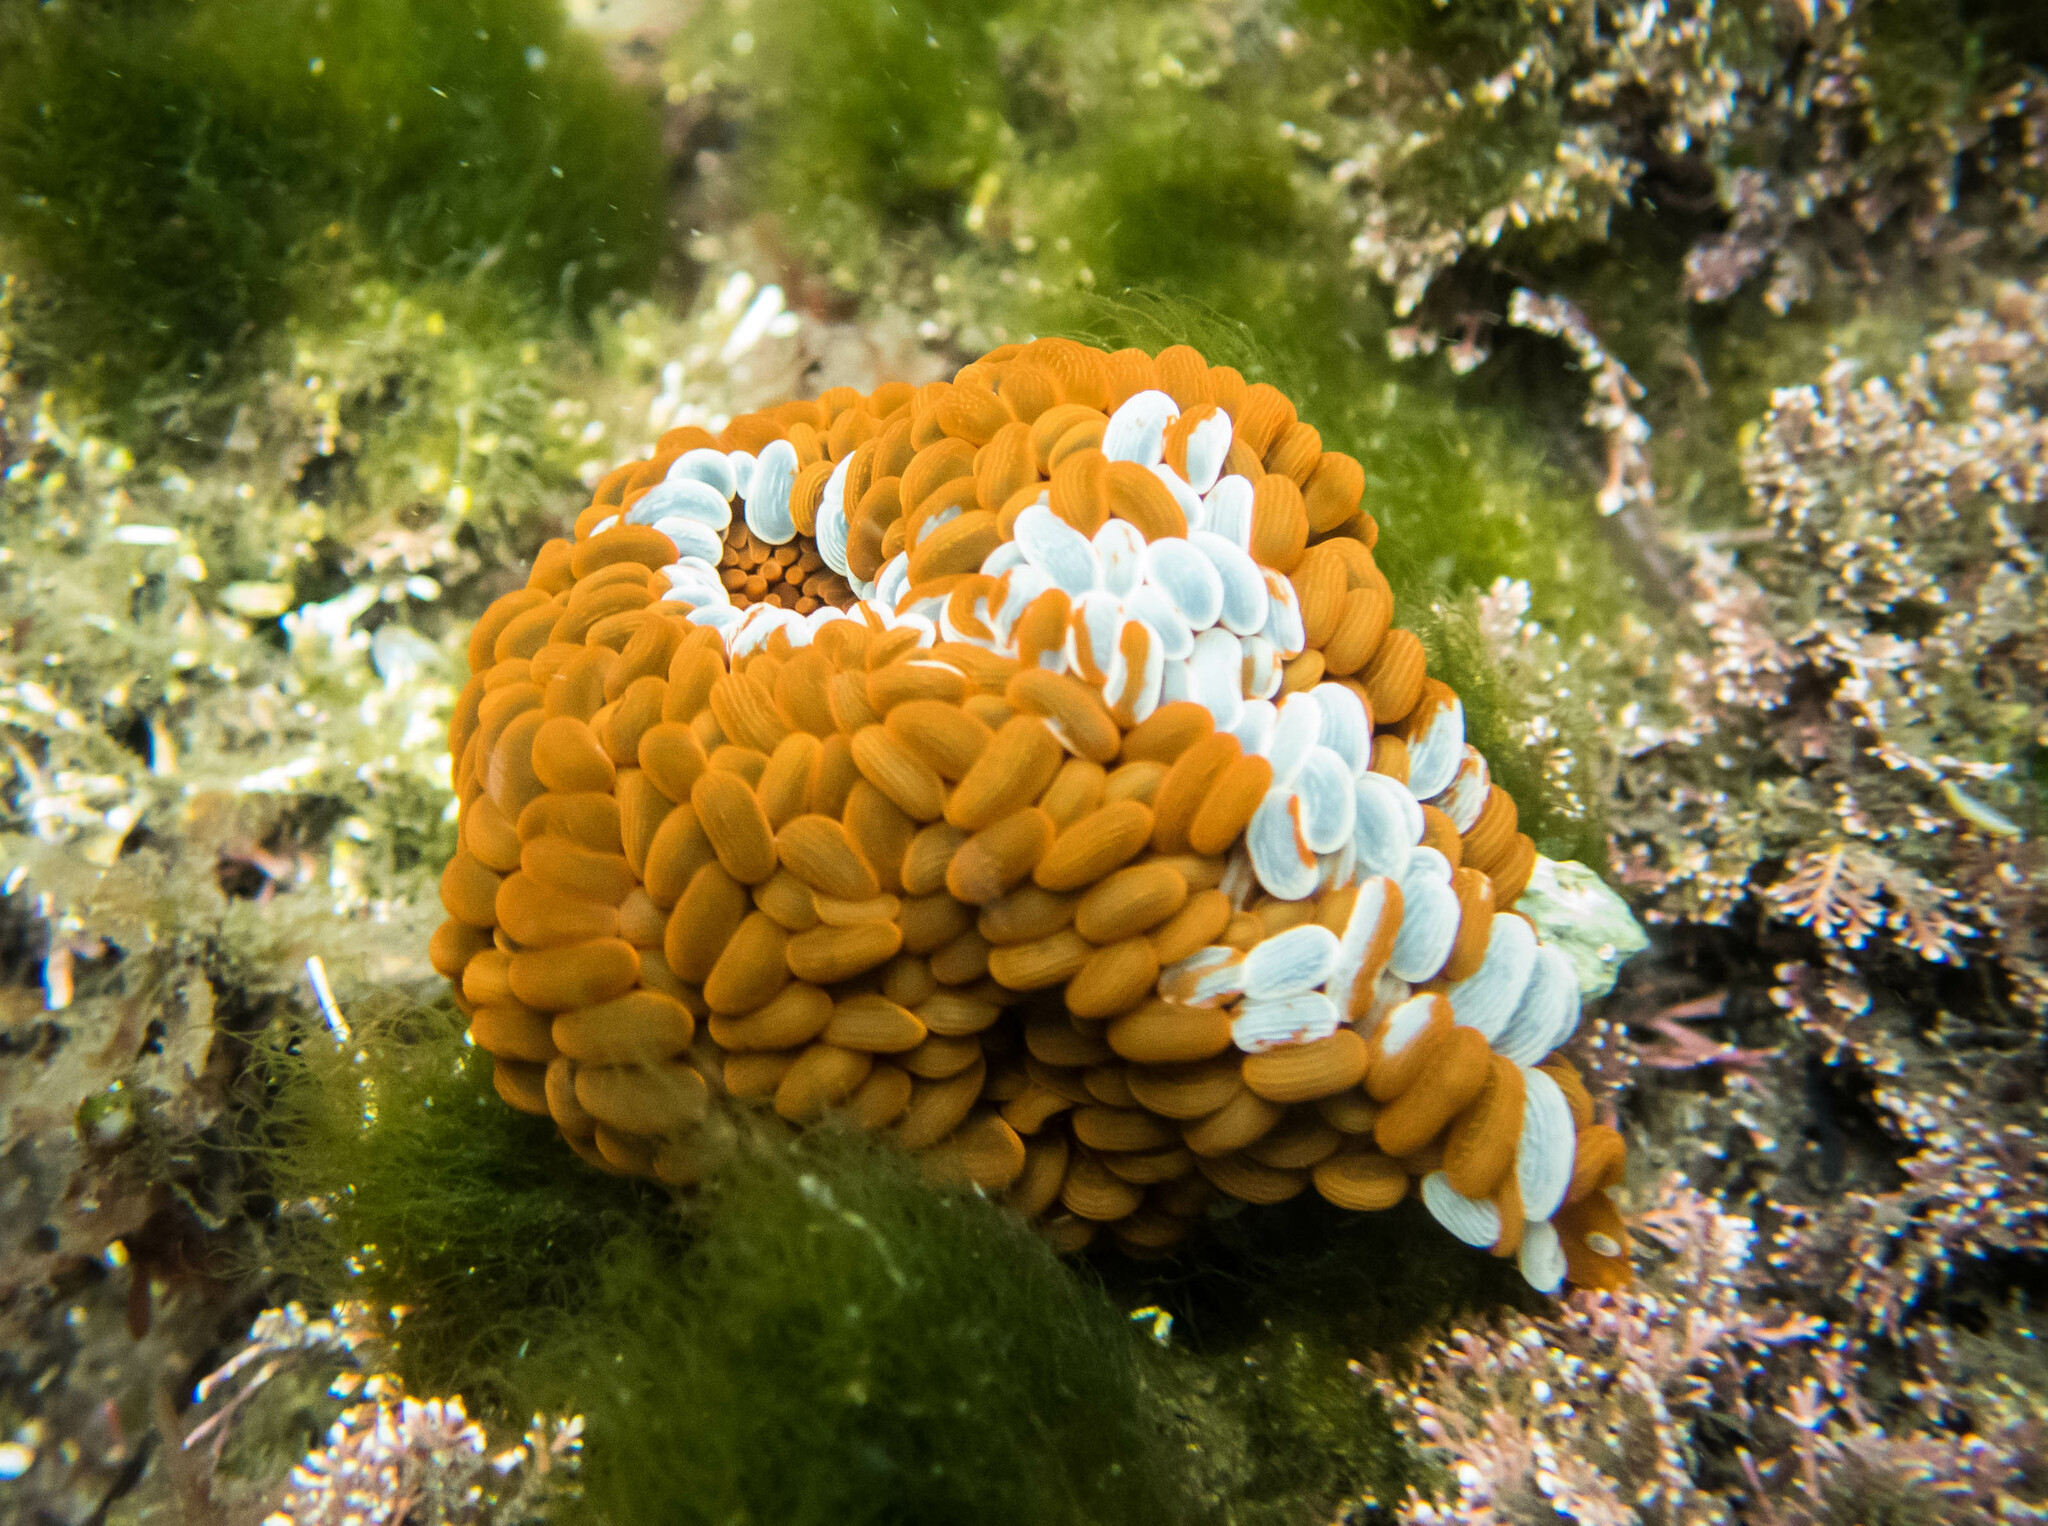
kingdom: Animalia
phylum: Cnidaria
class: Anthozoa
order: Actiniaria
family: Actiniidae
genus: Phlyctenactis
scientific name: Phlyctenactis tuberculosa
